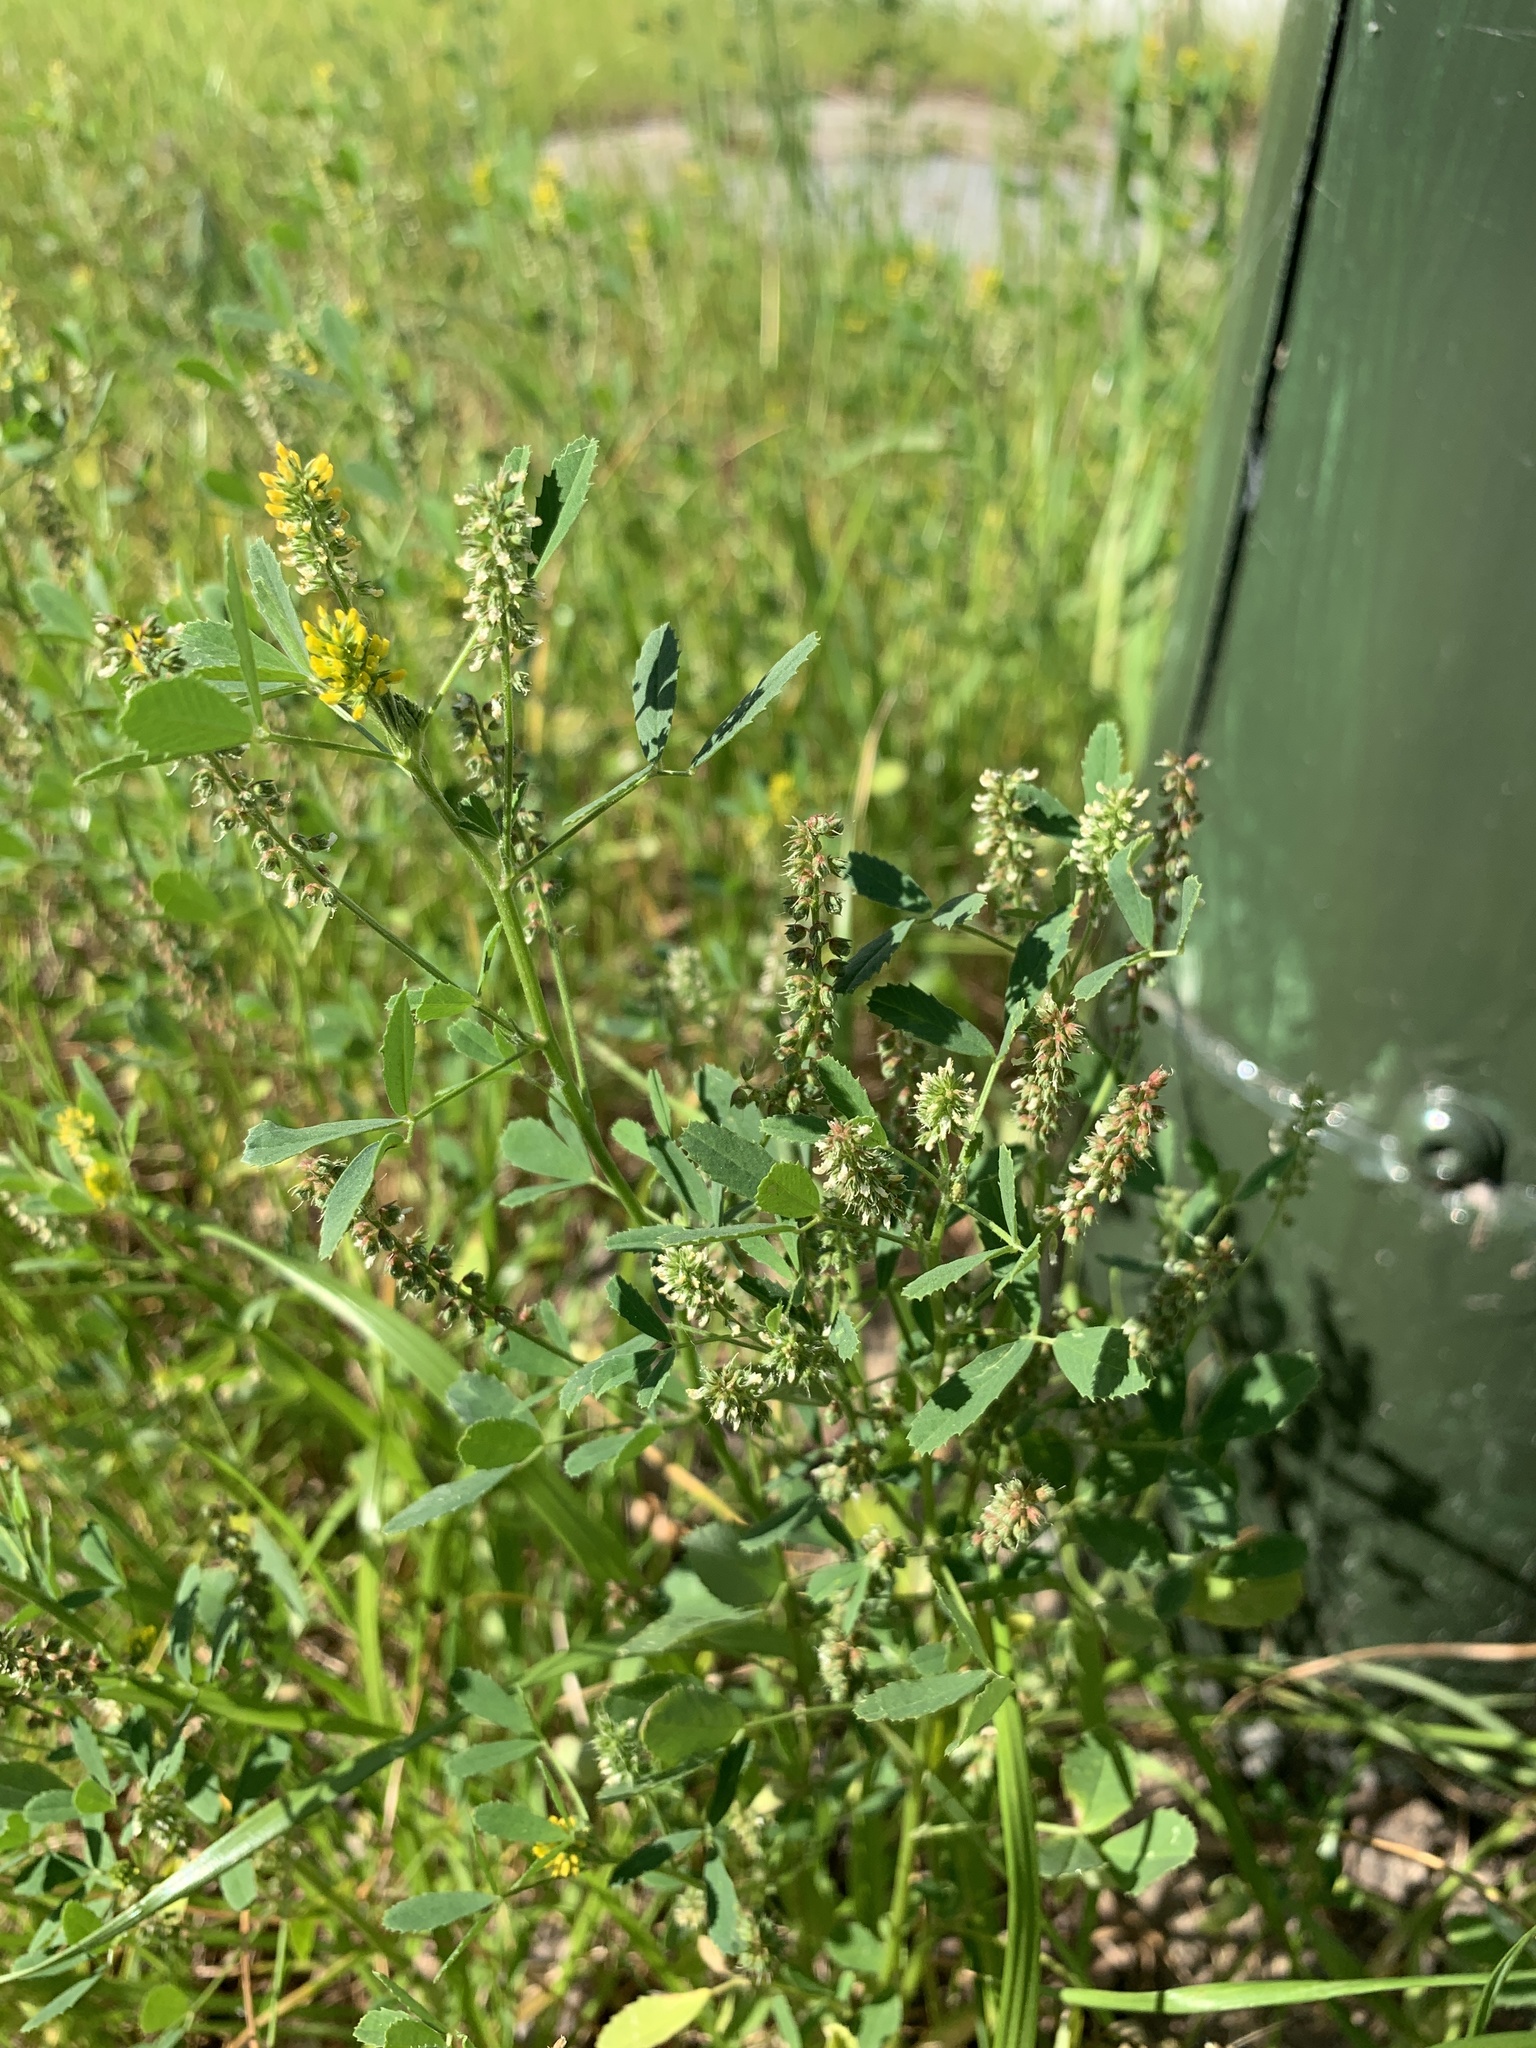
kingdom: Plantae
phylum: Tracheophyta
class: Magnoliopsida
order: Fabales
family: Fabaceae
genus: Melilotus
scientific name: Melilotus indicus
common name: Small melilot
